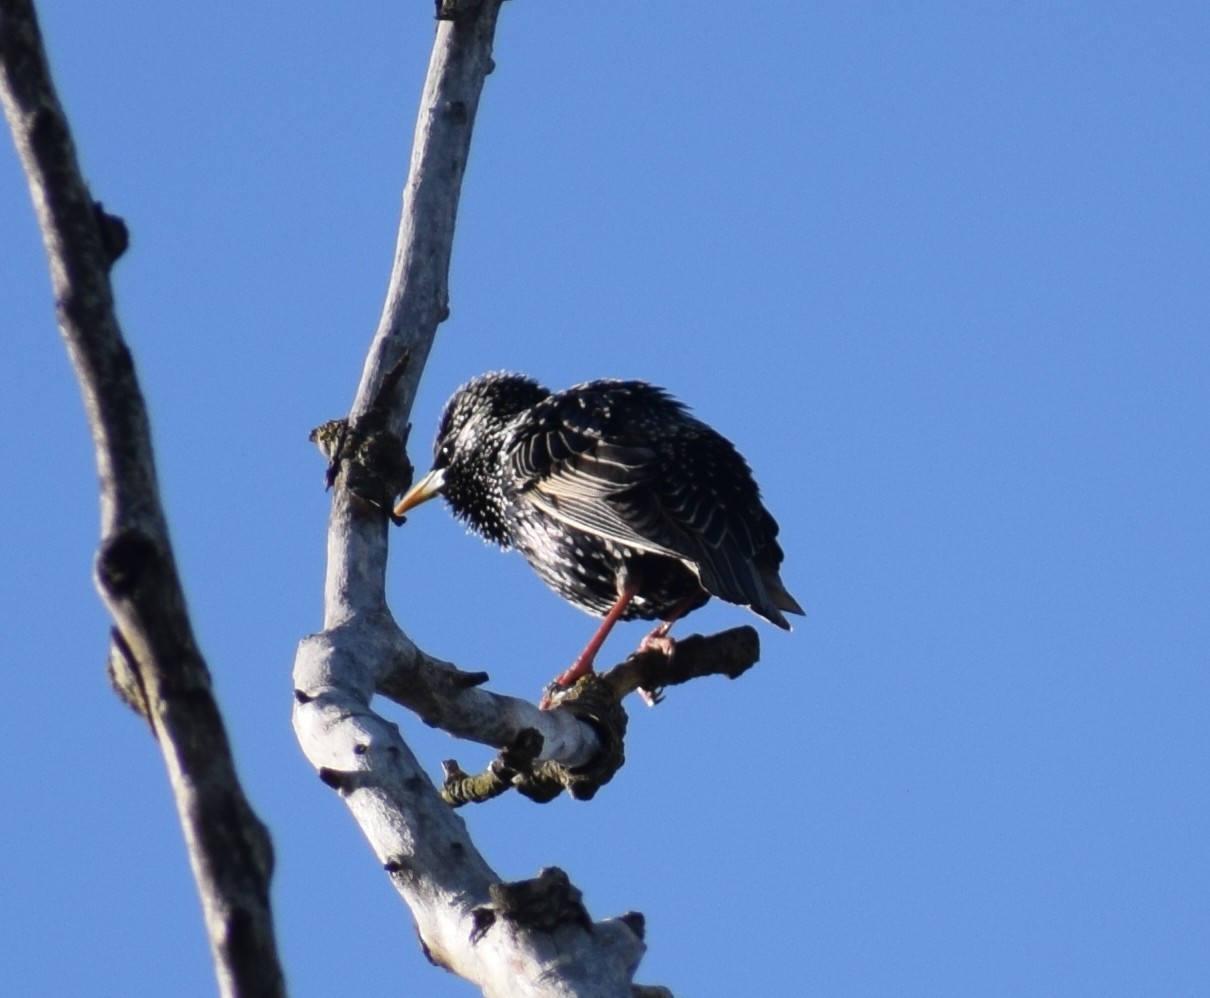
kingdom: Animalia
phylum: Chordata
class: Aves
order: Passeriformes
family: Sturnidae
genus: Sturnus
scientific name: Sturnus vulgaris
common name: Common starling
